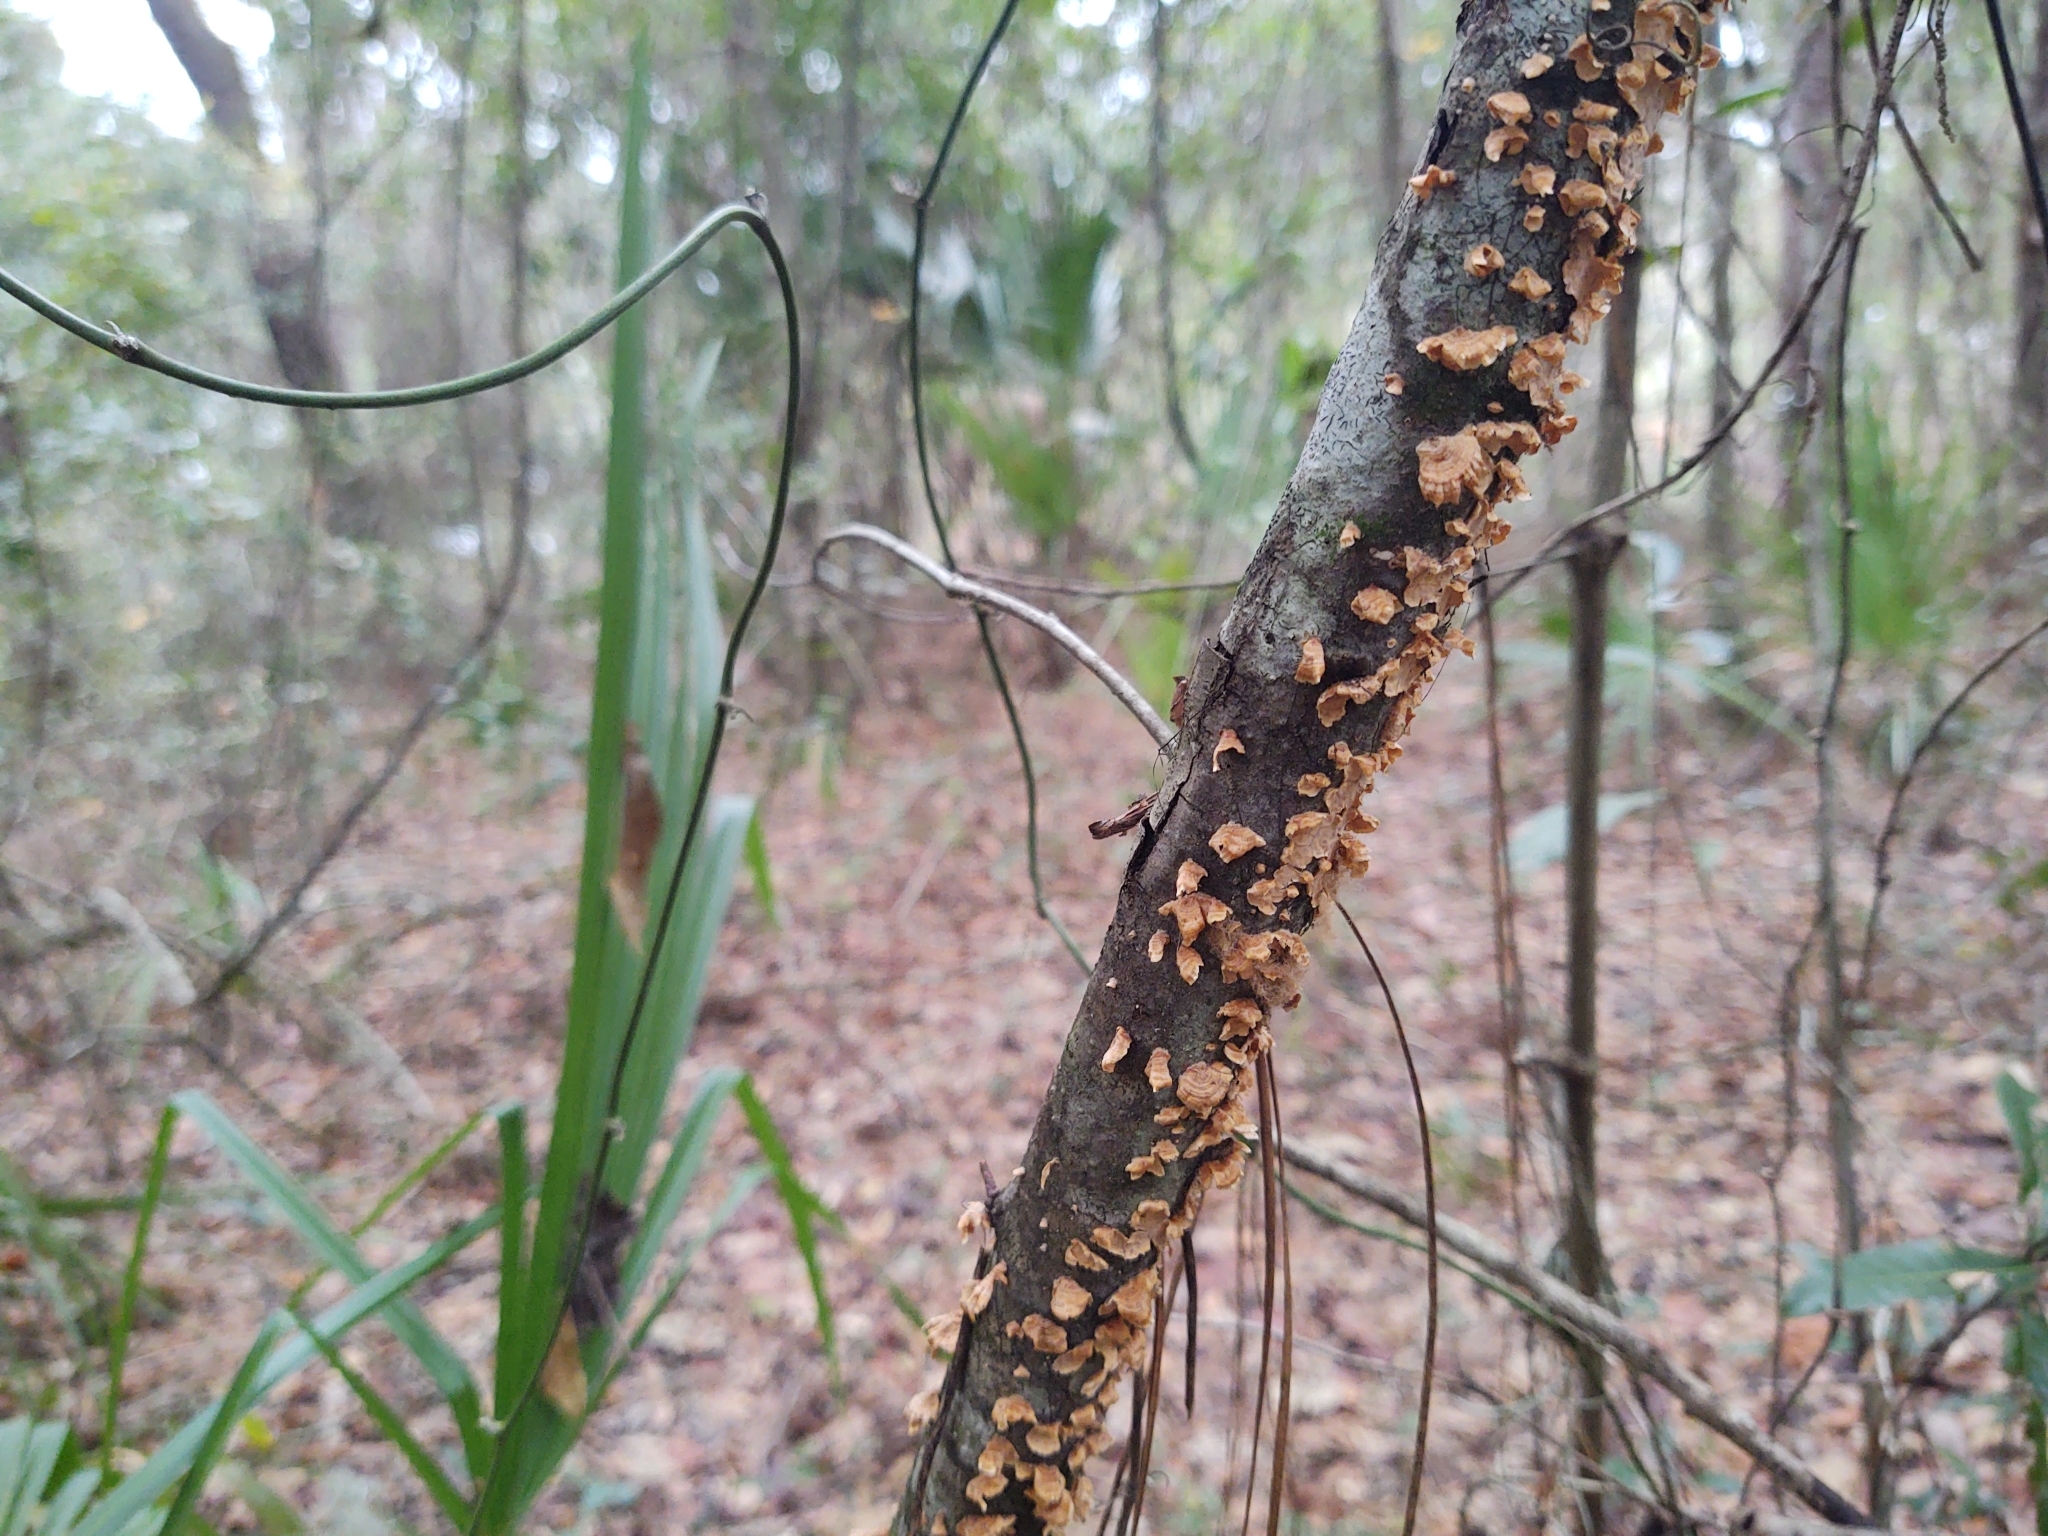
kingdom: Fungi
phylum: Basidiomycota
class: Agaricomycetes
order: Russulales
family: Stereaceae
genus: Stereum
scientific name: Stereum complicatum
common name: Crowded parchment
